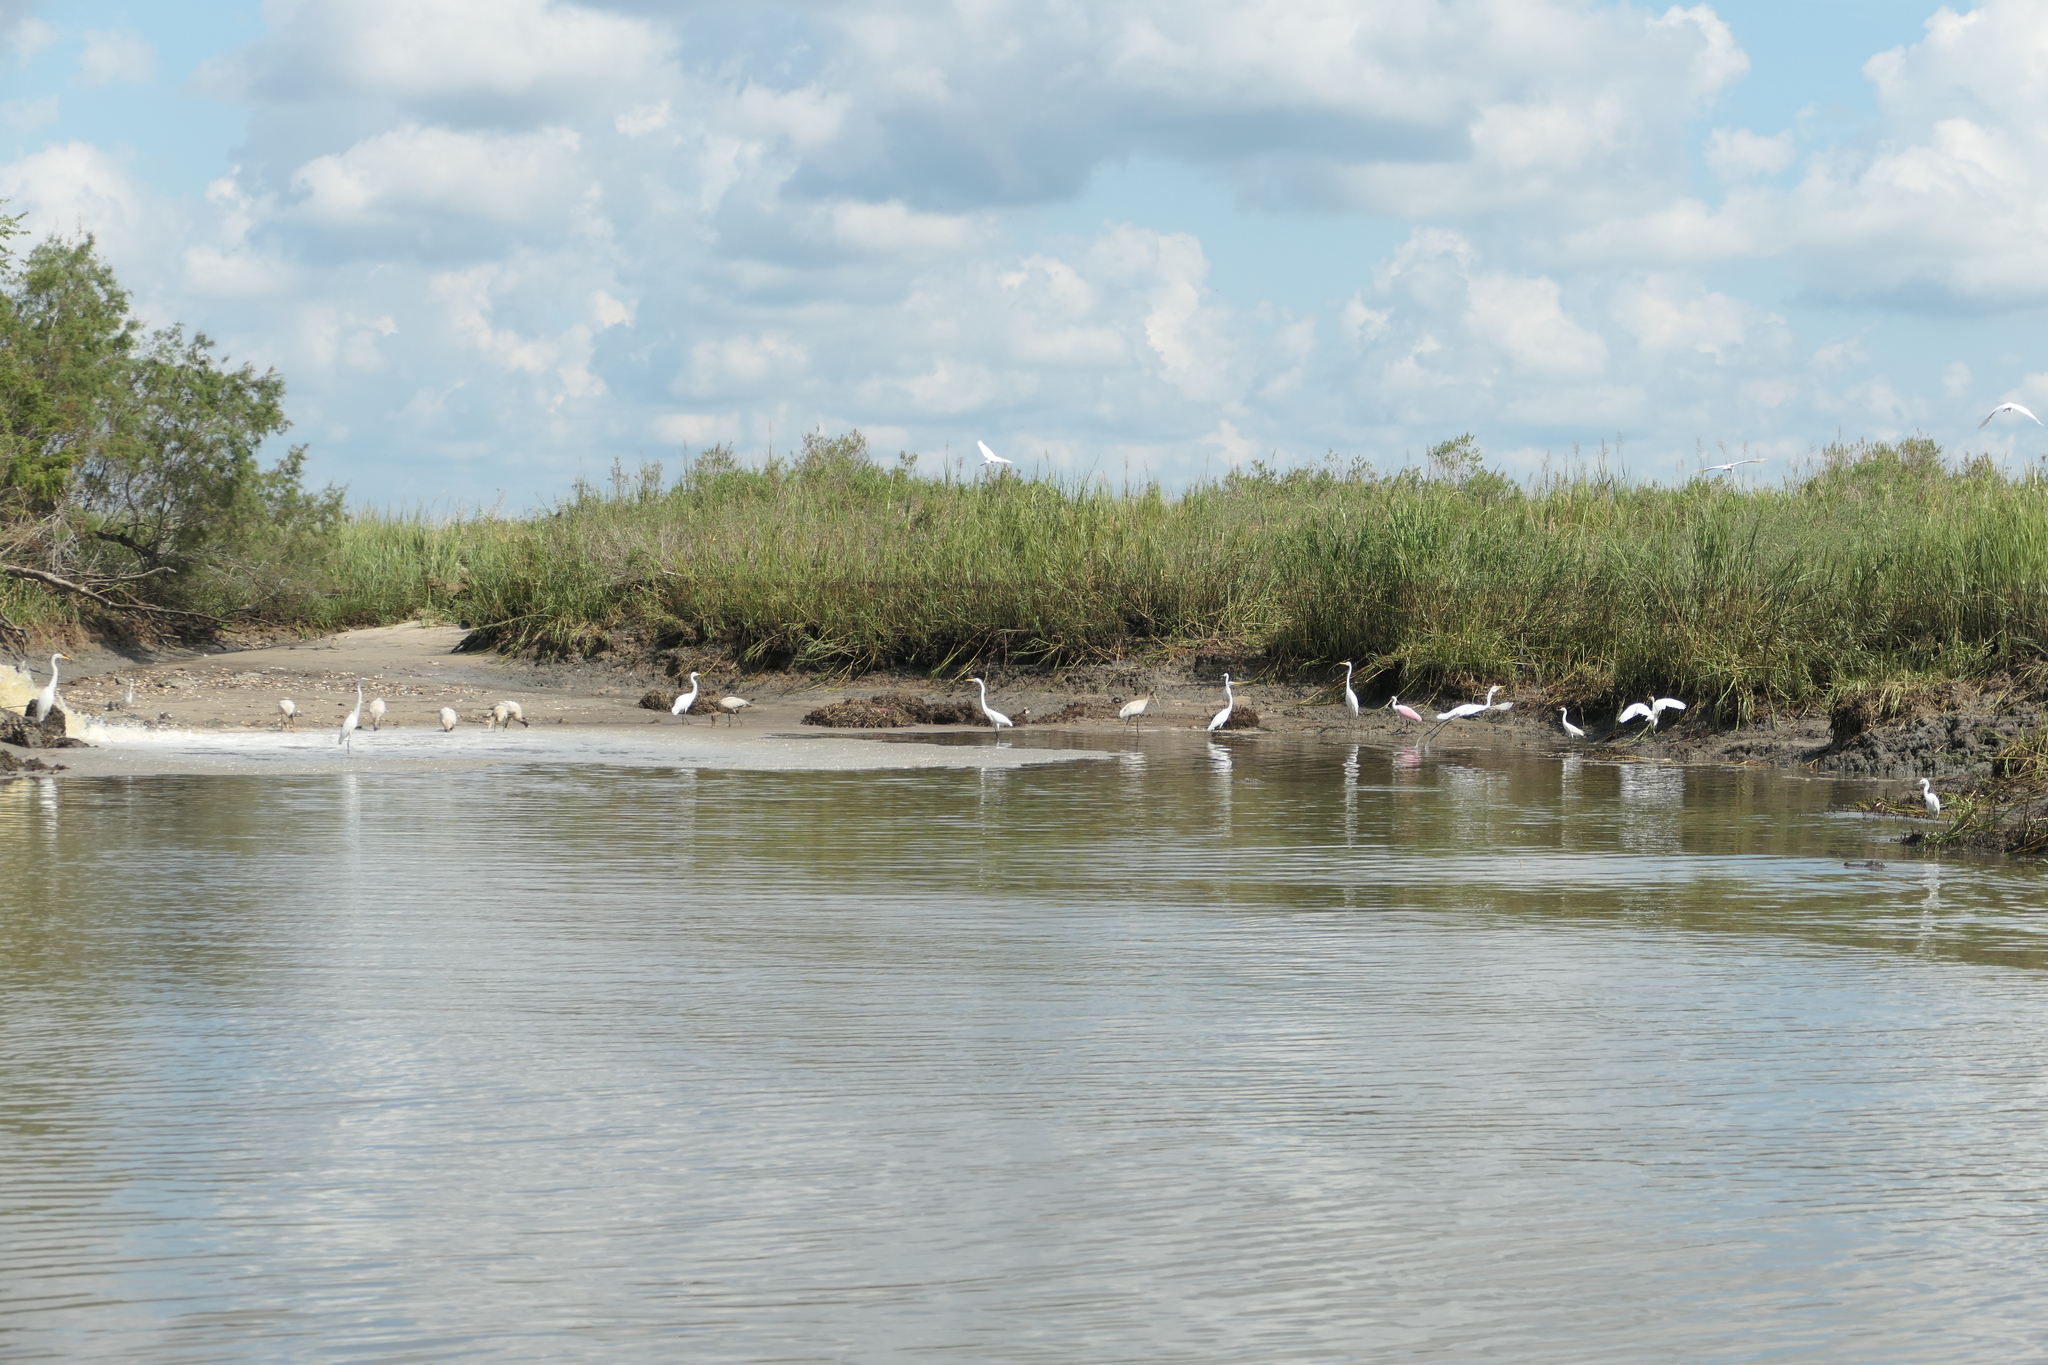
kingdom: Animalia
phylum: Chordata
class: Aves
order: Pelecaniformes
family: Ardeidae
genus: Ardea
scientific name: Ardea alba
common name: Great egret
